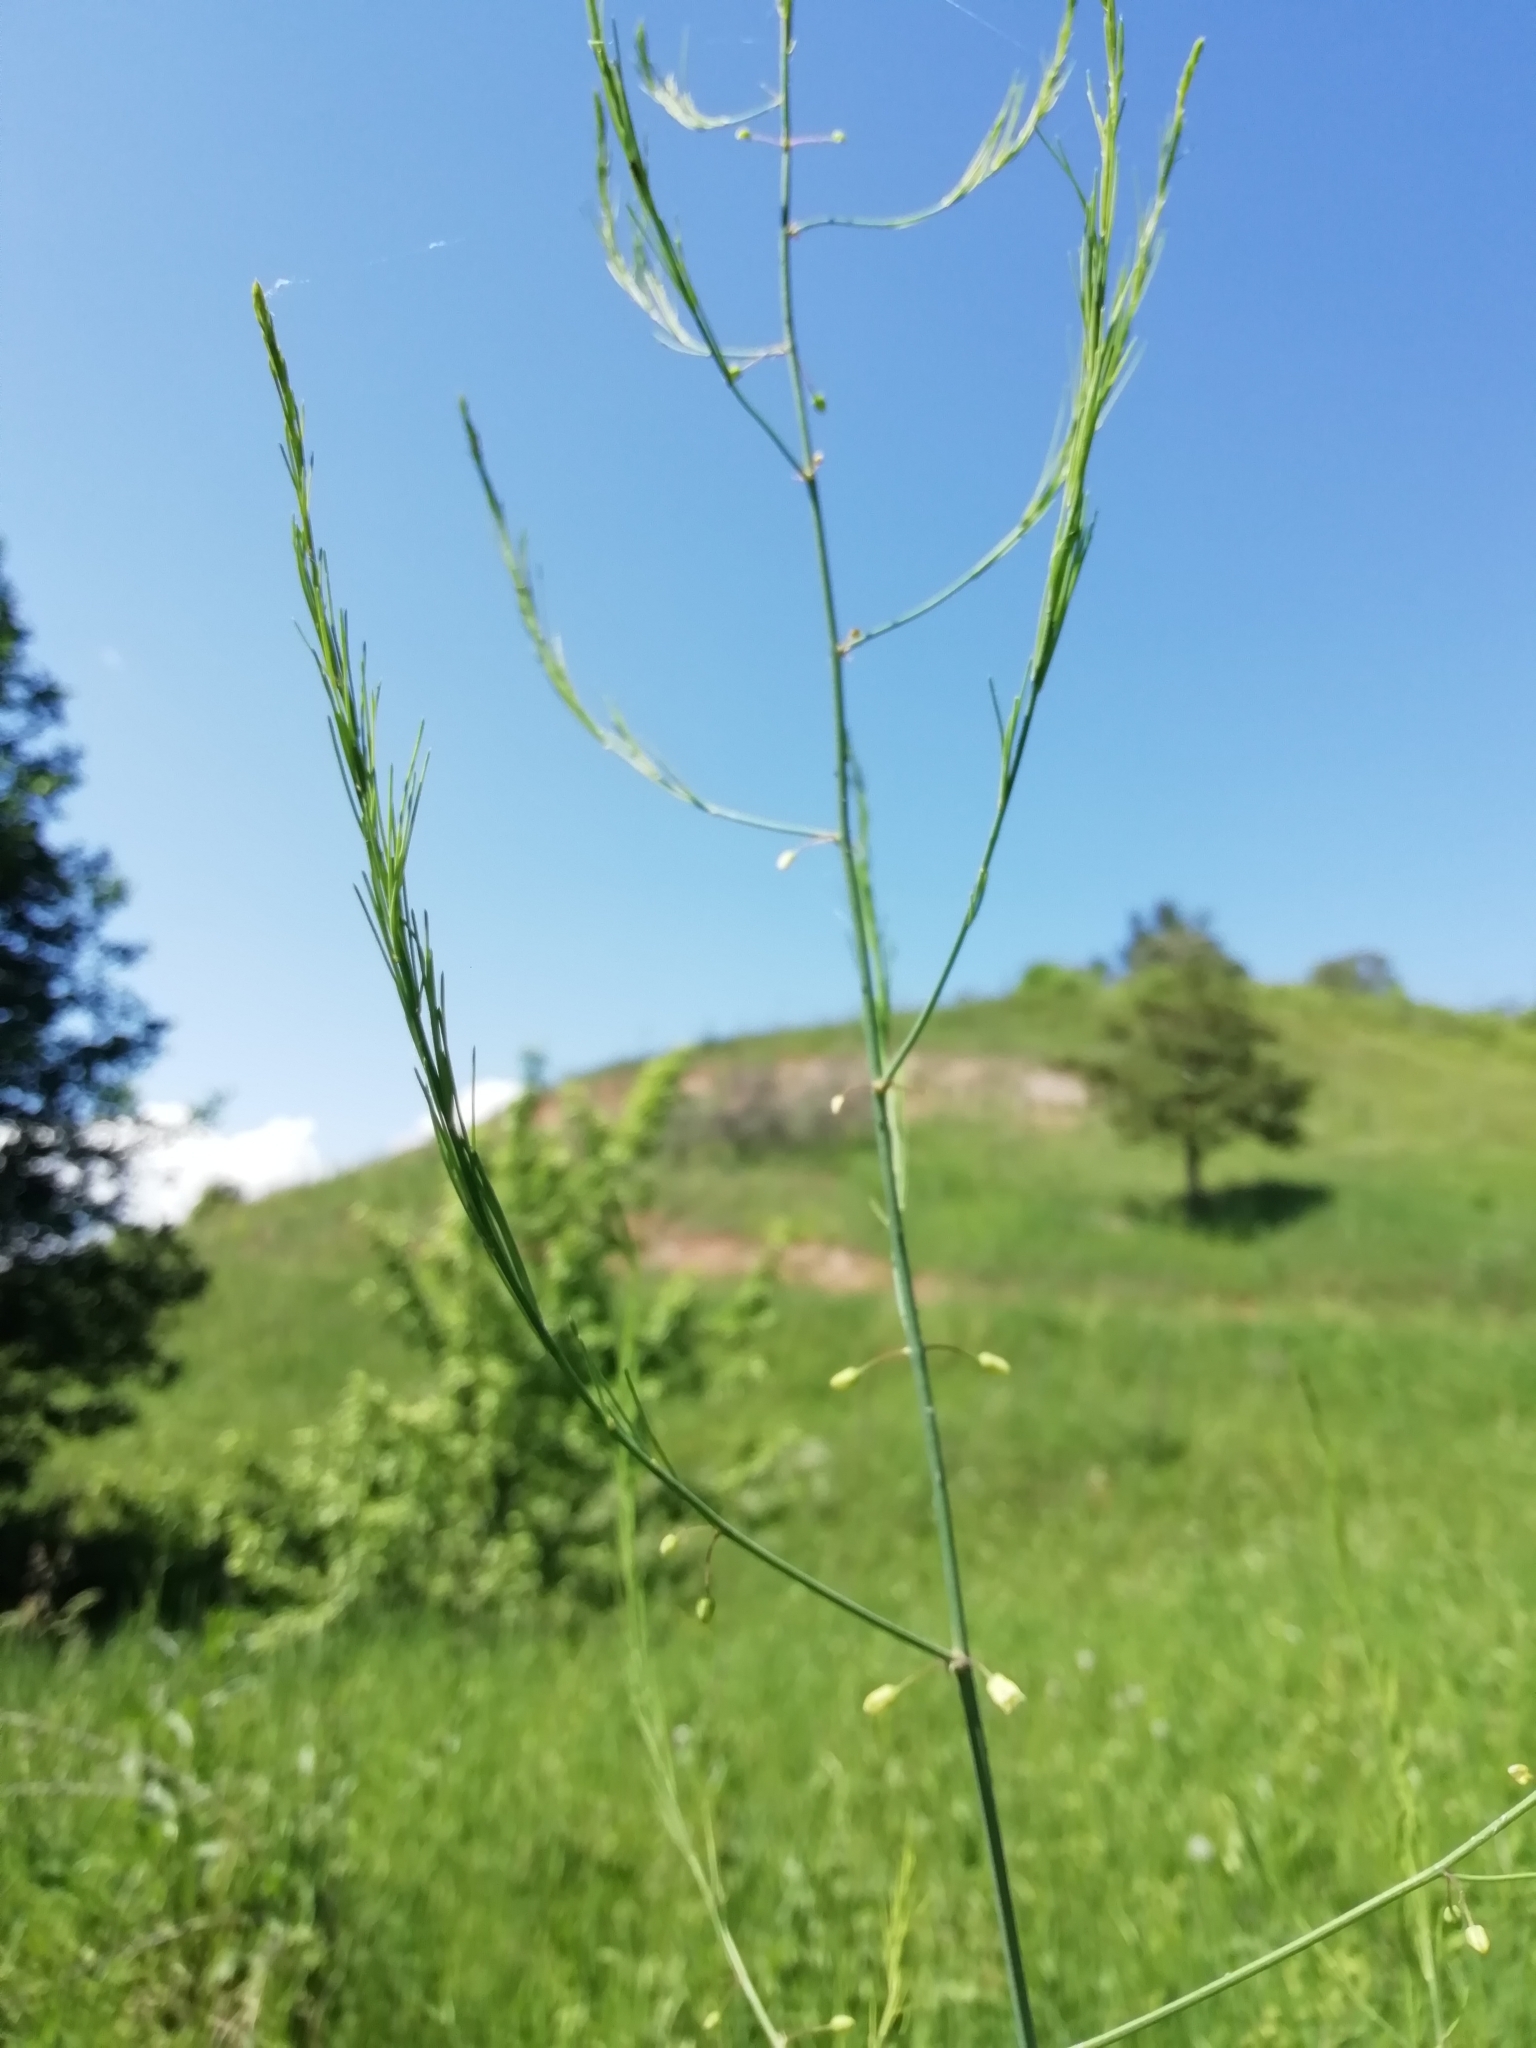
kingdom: Plantae
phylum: Tracheophyta
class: Liliopsida
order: Asparagales
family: Asparagaceae
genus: Asparagus
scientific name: Asparagus officinalis
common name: Garden asparagus
